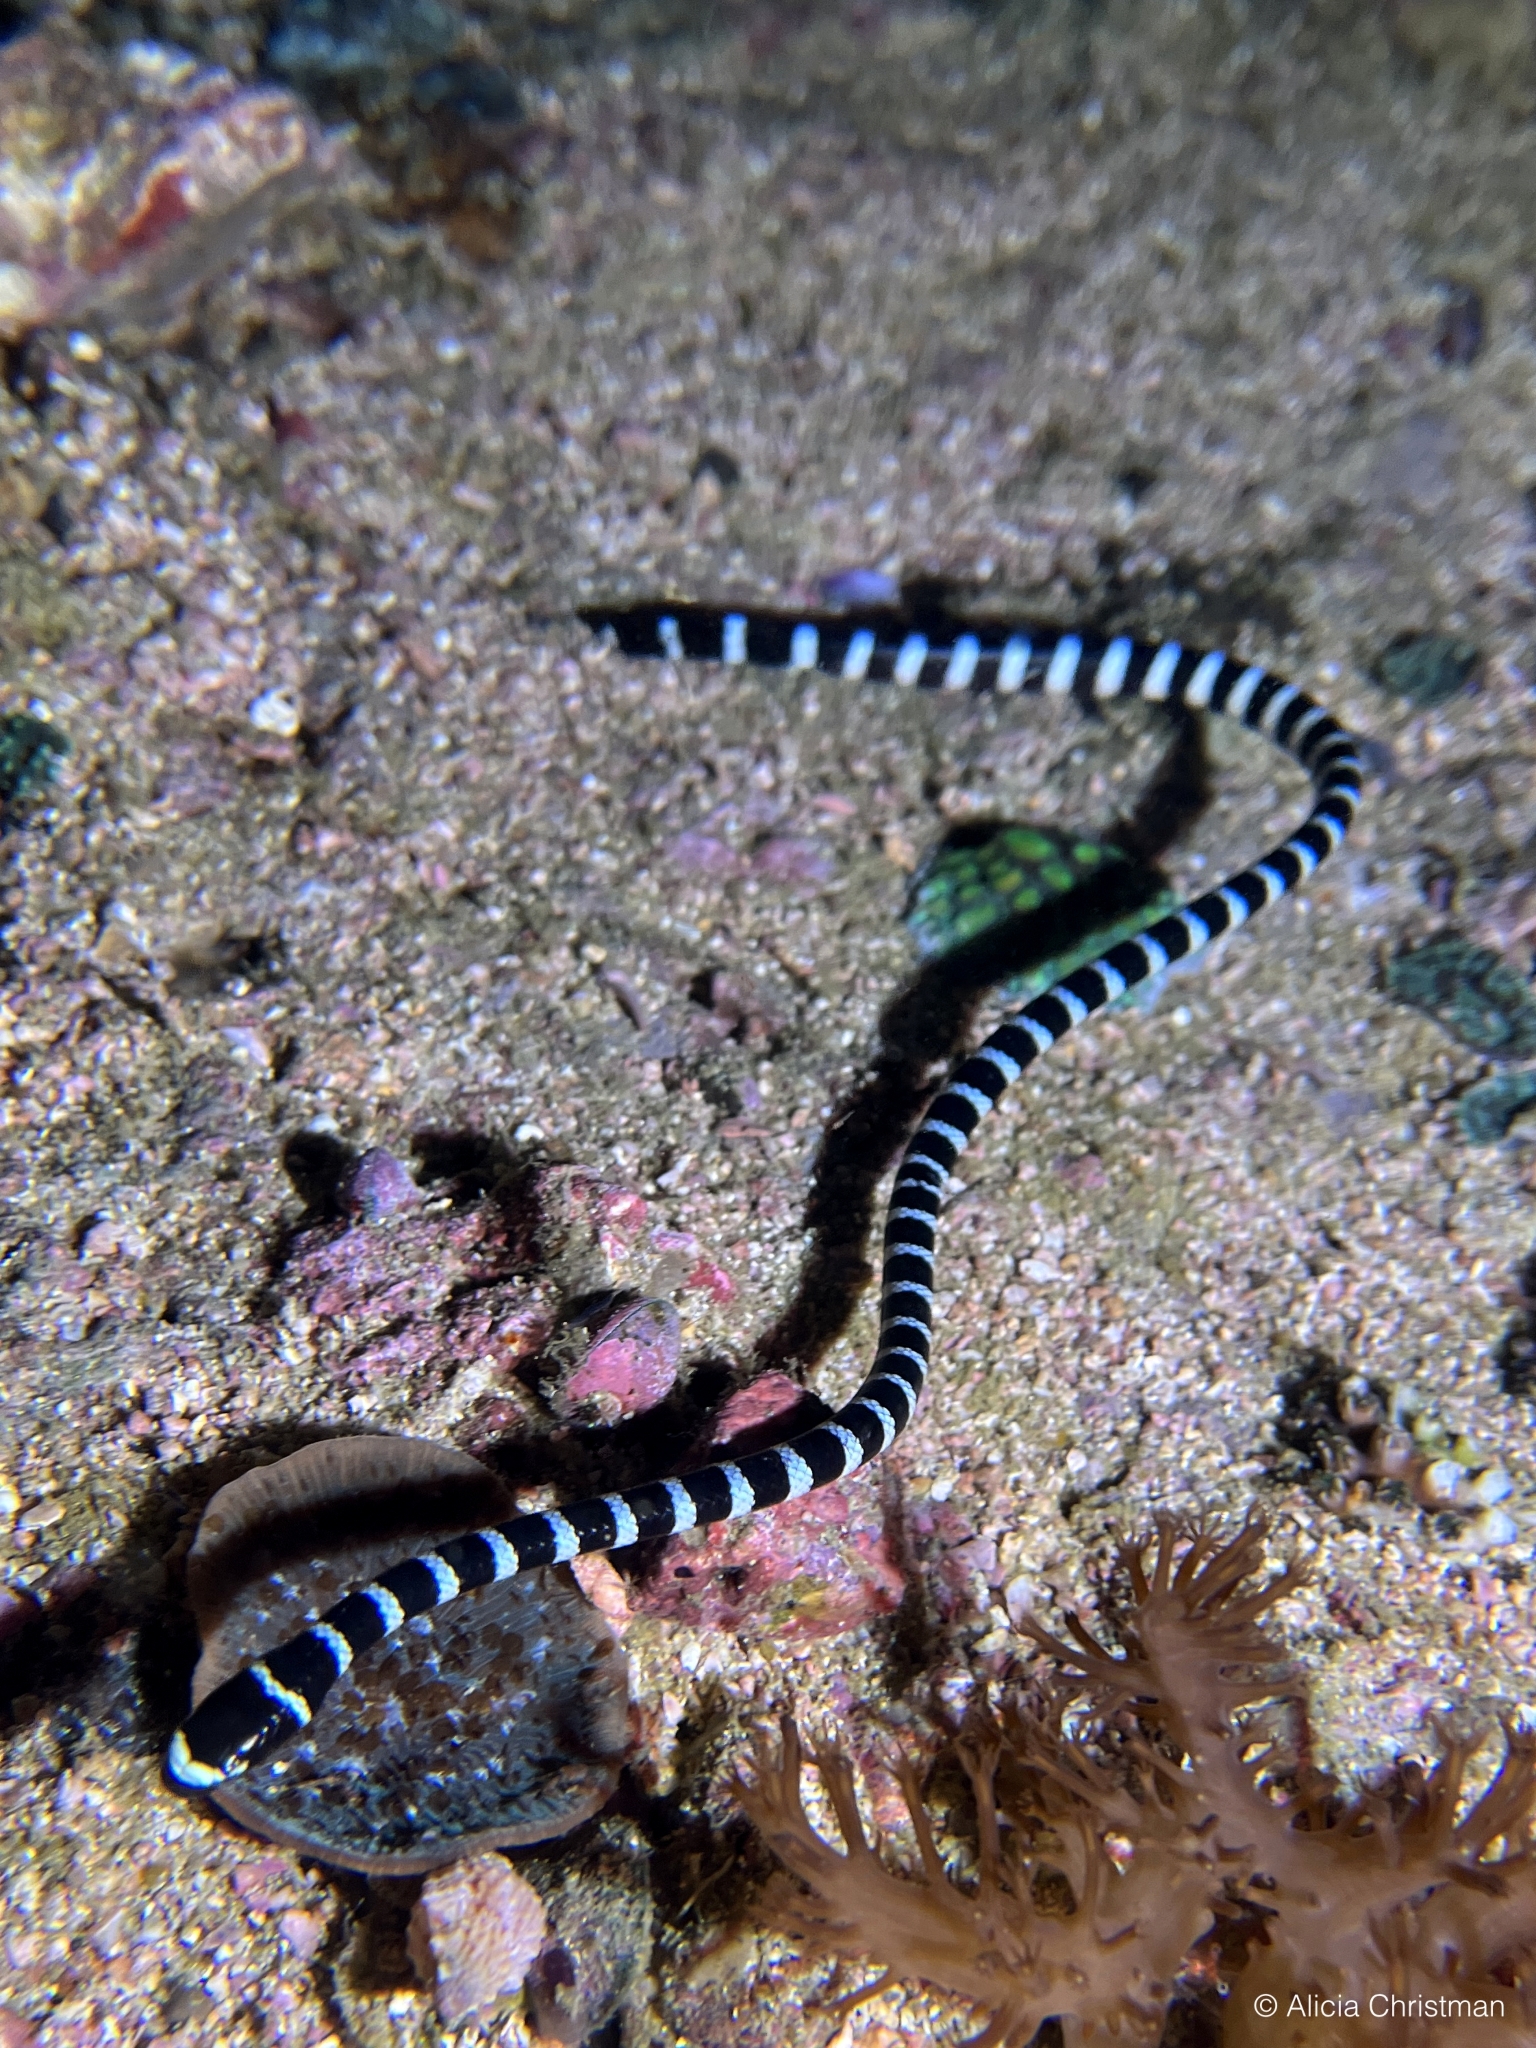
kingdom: Animalia
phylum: Chordata
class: Squamata
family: Elapidae
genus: Laticauda
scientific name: Laticauda laticaudata
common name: Blue-banded sea krait
